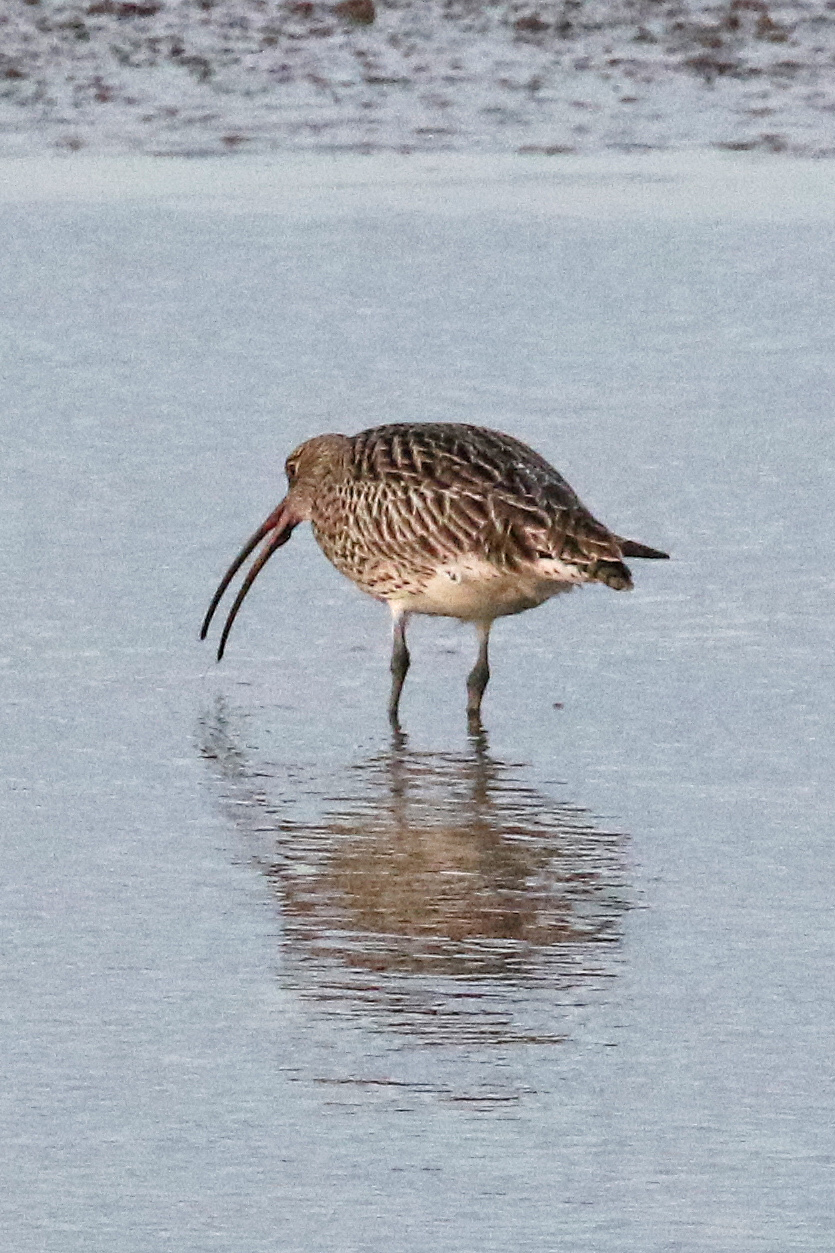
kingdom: Animalia
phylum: Chordata
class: Aves
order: Charadriiformes
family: Scolopacidae
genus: Numenius
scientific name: Numenius arquata
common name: Eurasian curlew
